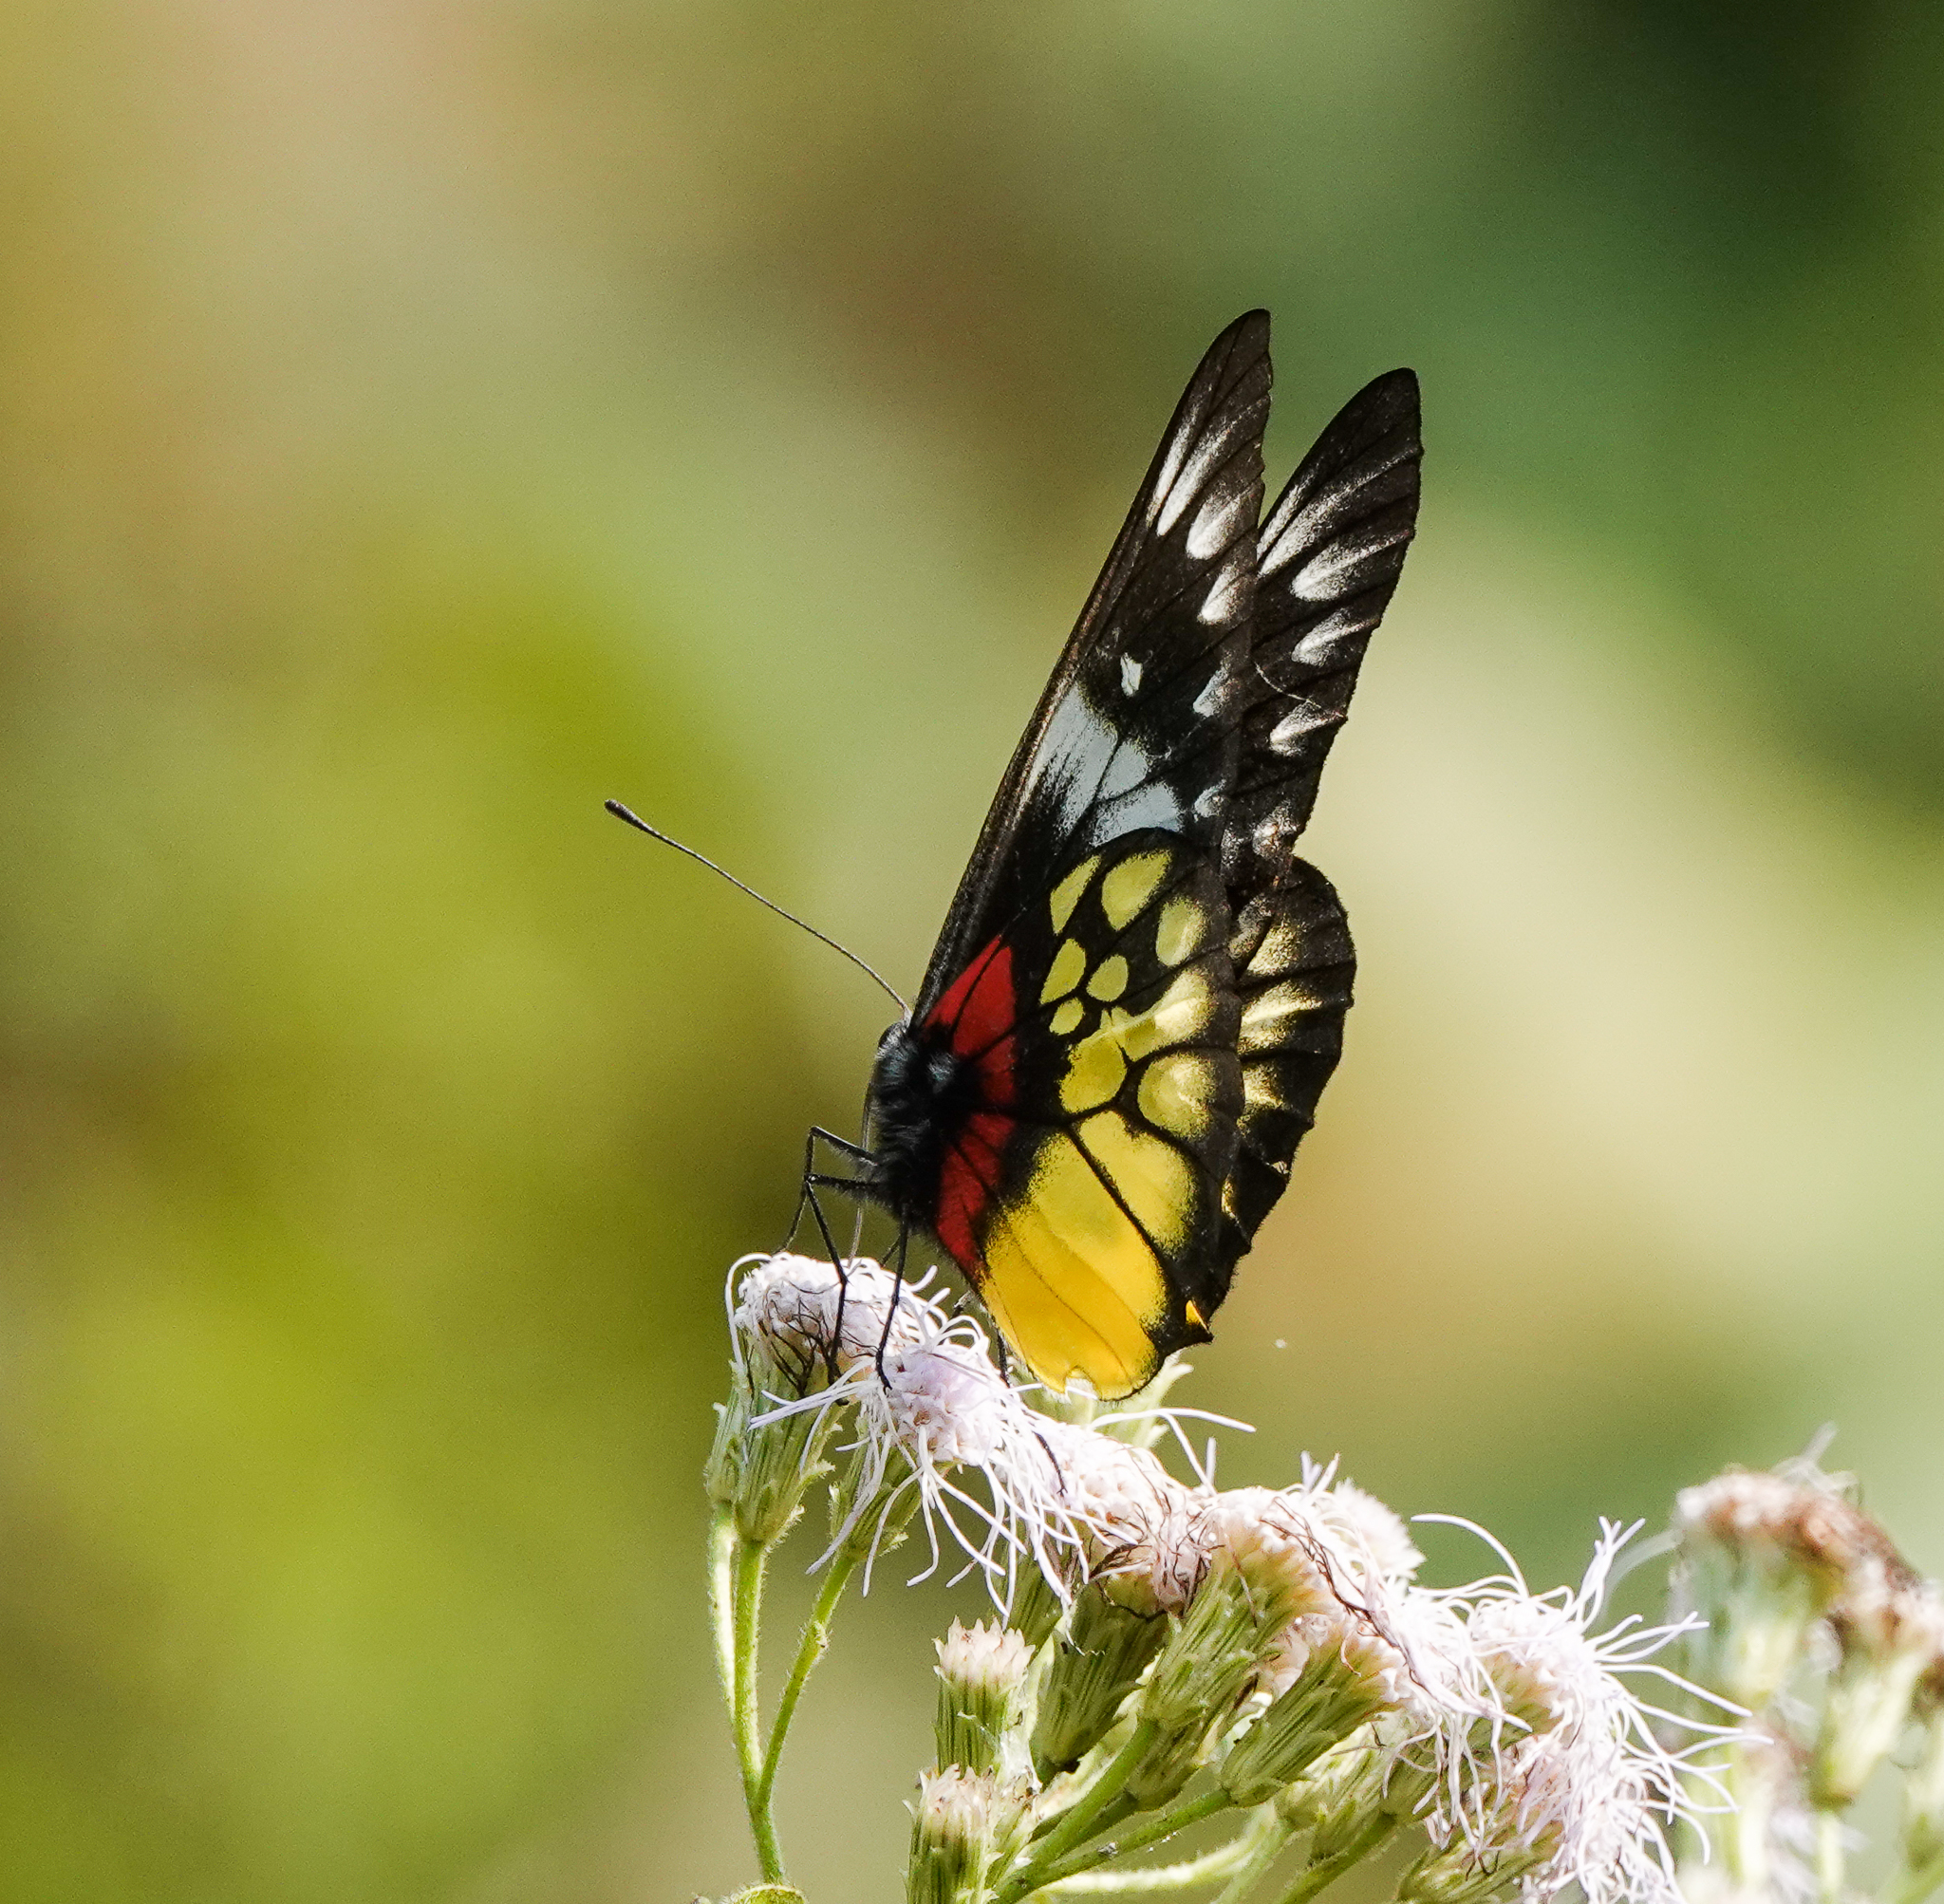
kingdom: Animalia
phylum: Arthropoda
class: Insecta
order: Lepidoptera
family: Pieridae
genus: Delias
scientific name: Delias pasithoe
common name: Red-base jezebel
